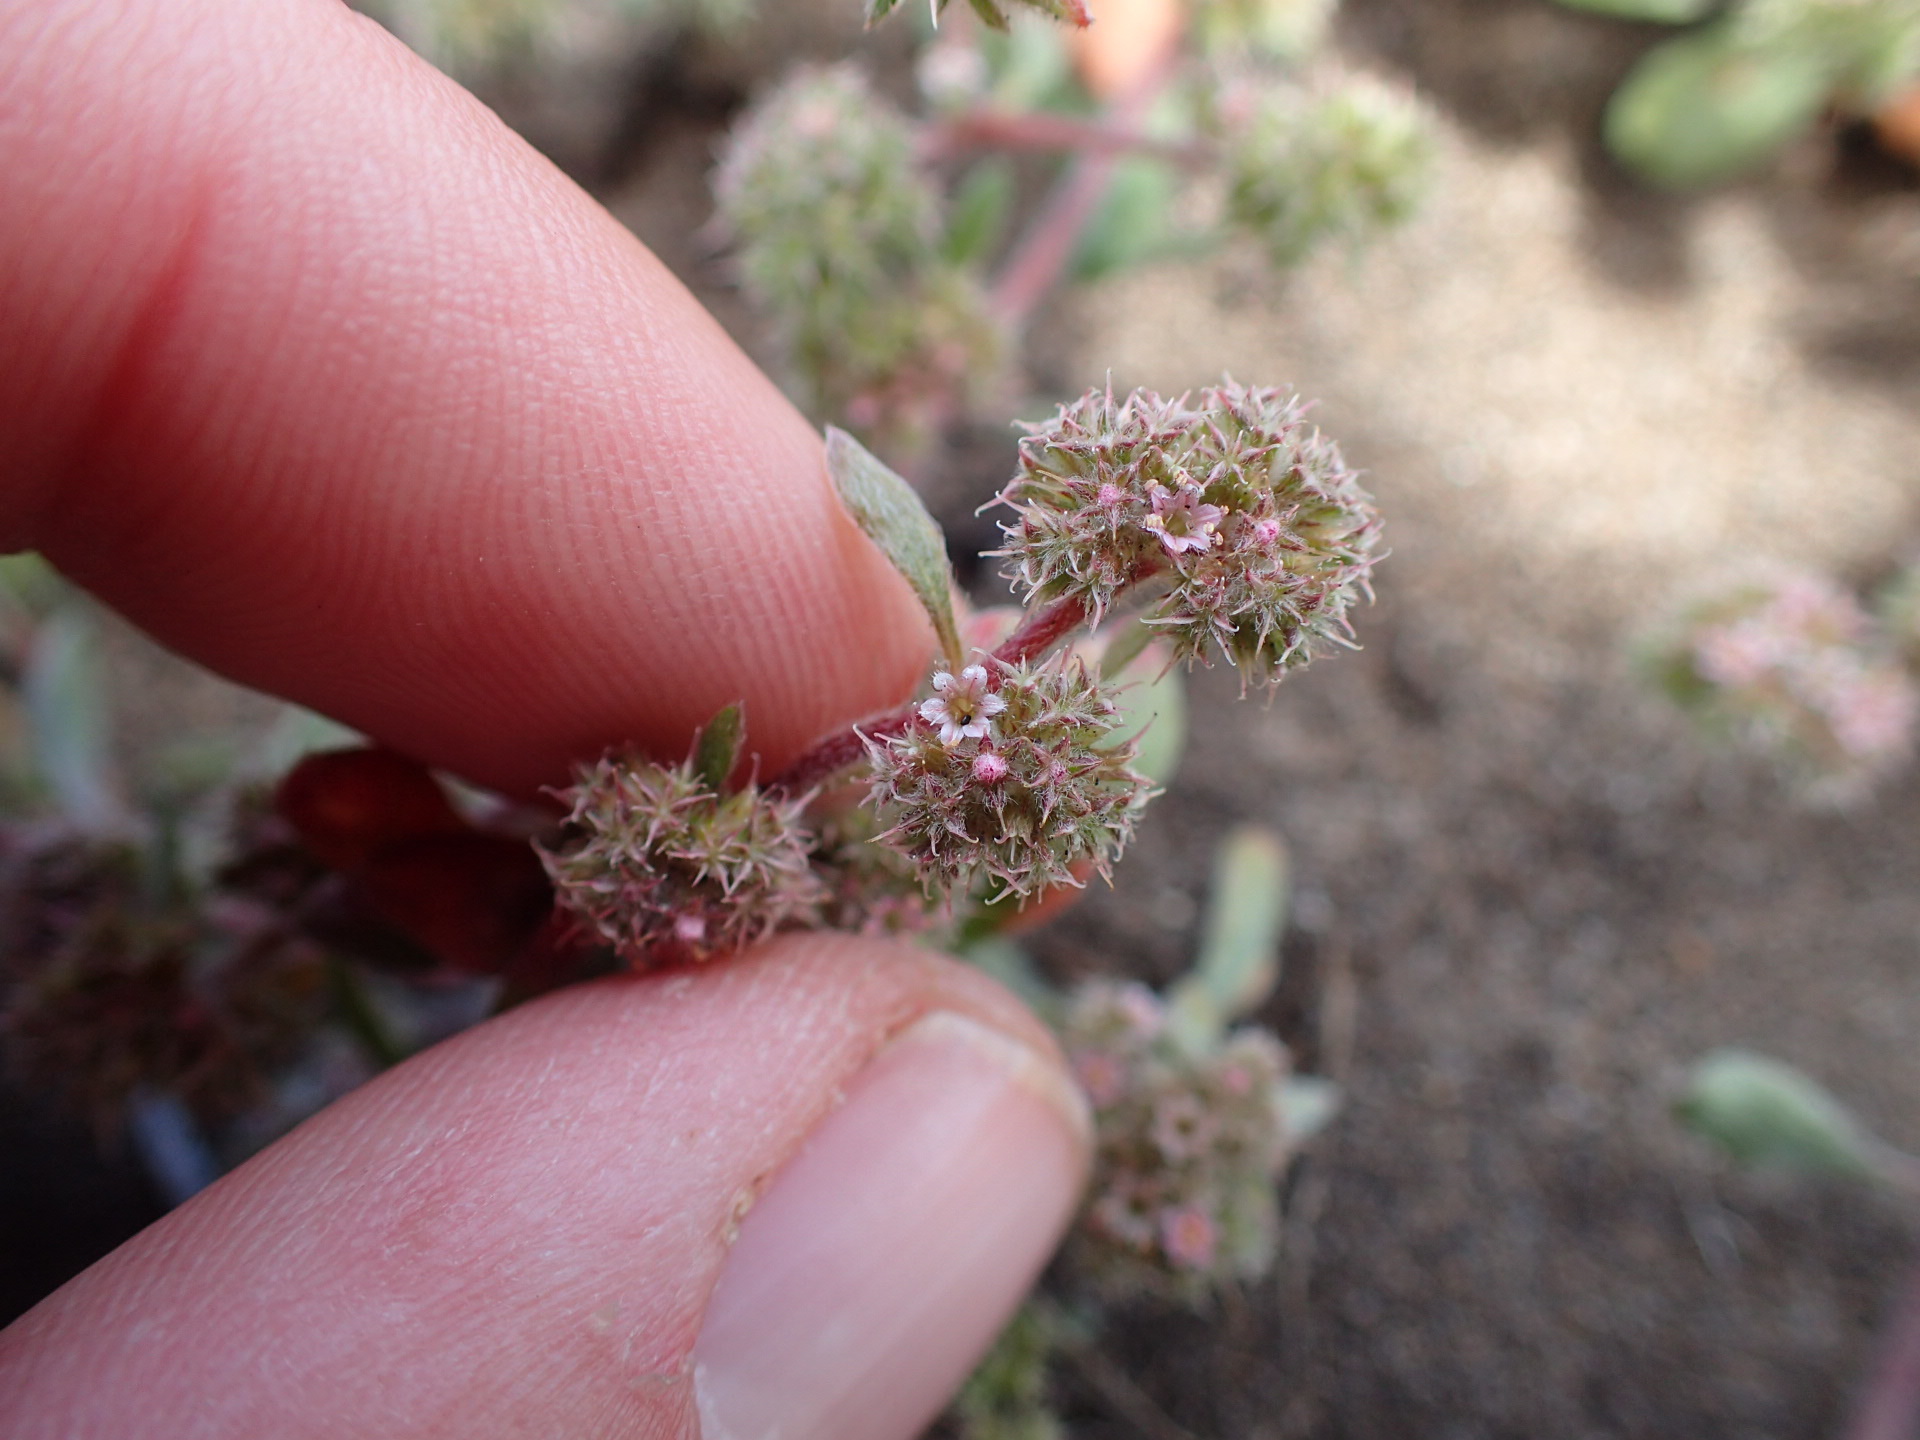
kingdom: Plantae
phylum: Tracheophyta
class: Magnoliopsida
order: Caryophyllales
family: Polygonaceae
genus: Chorizanthe
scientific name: Chorizanthe cuspidata
